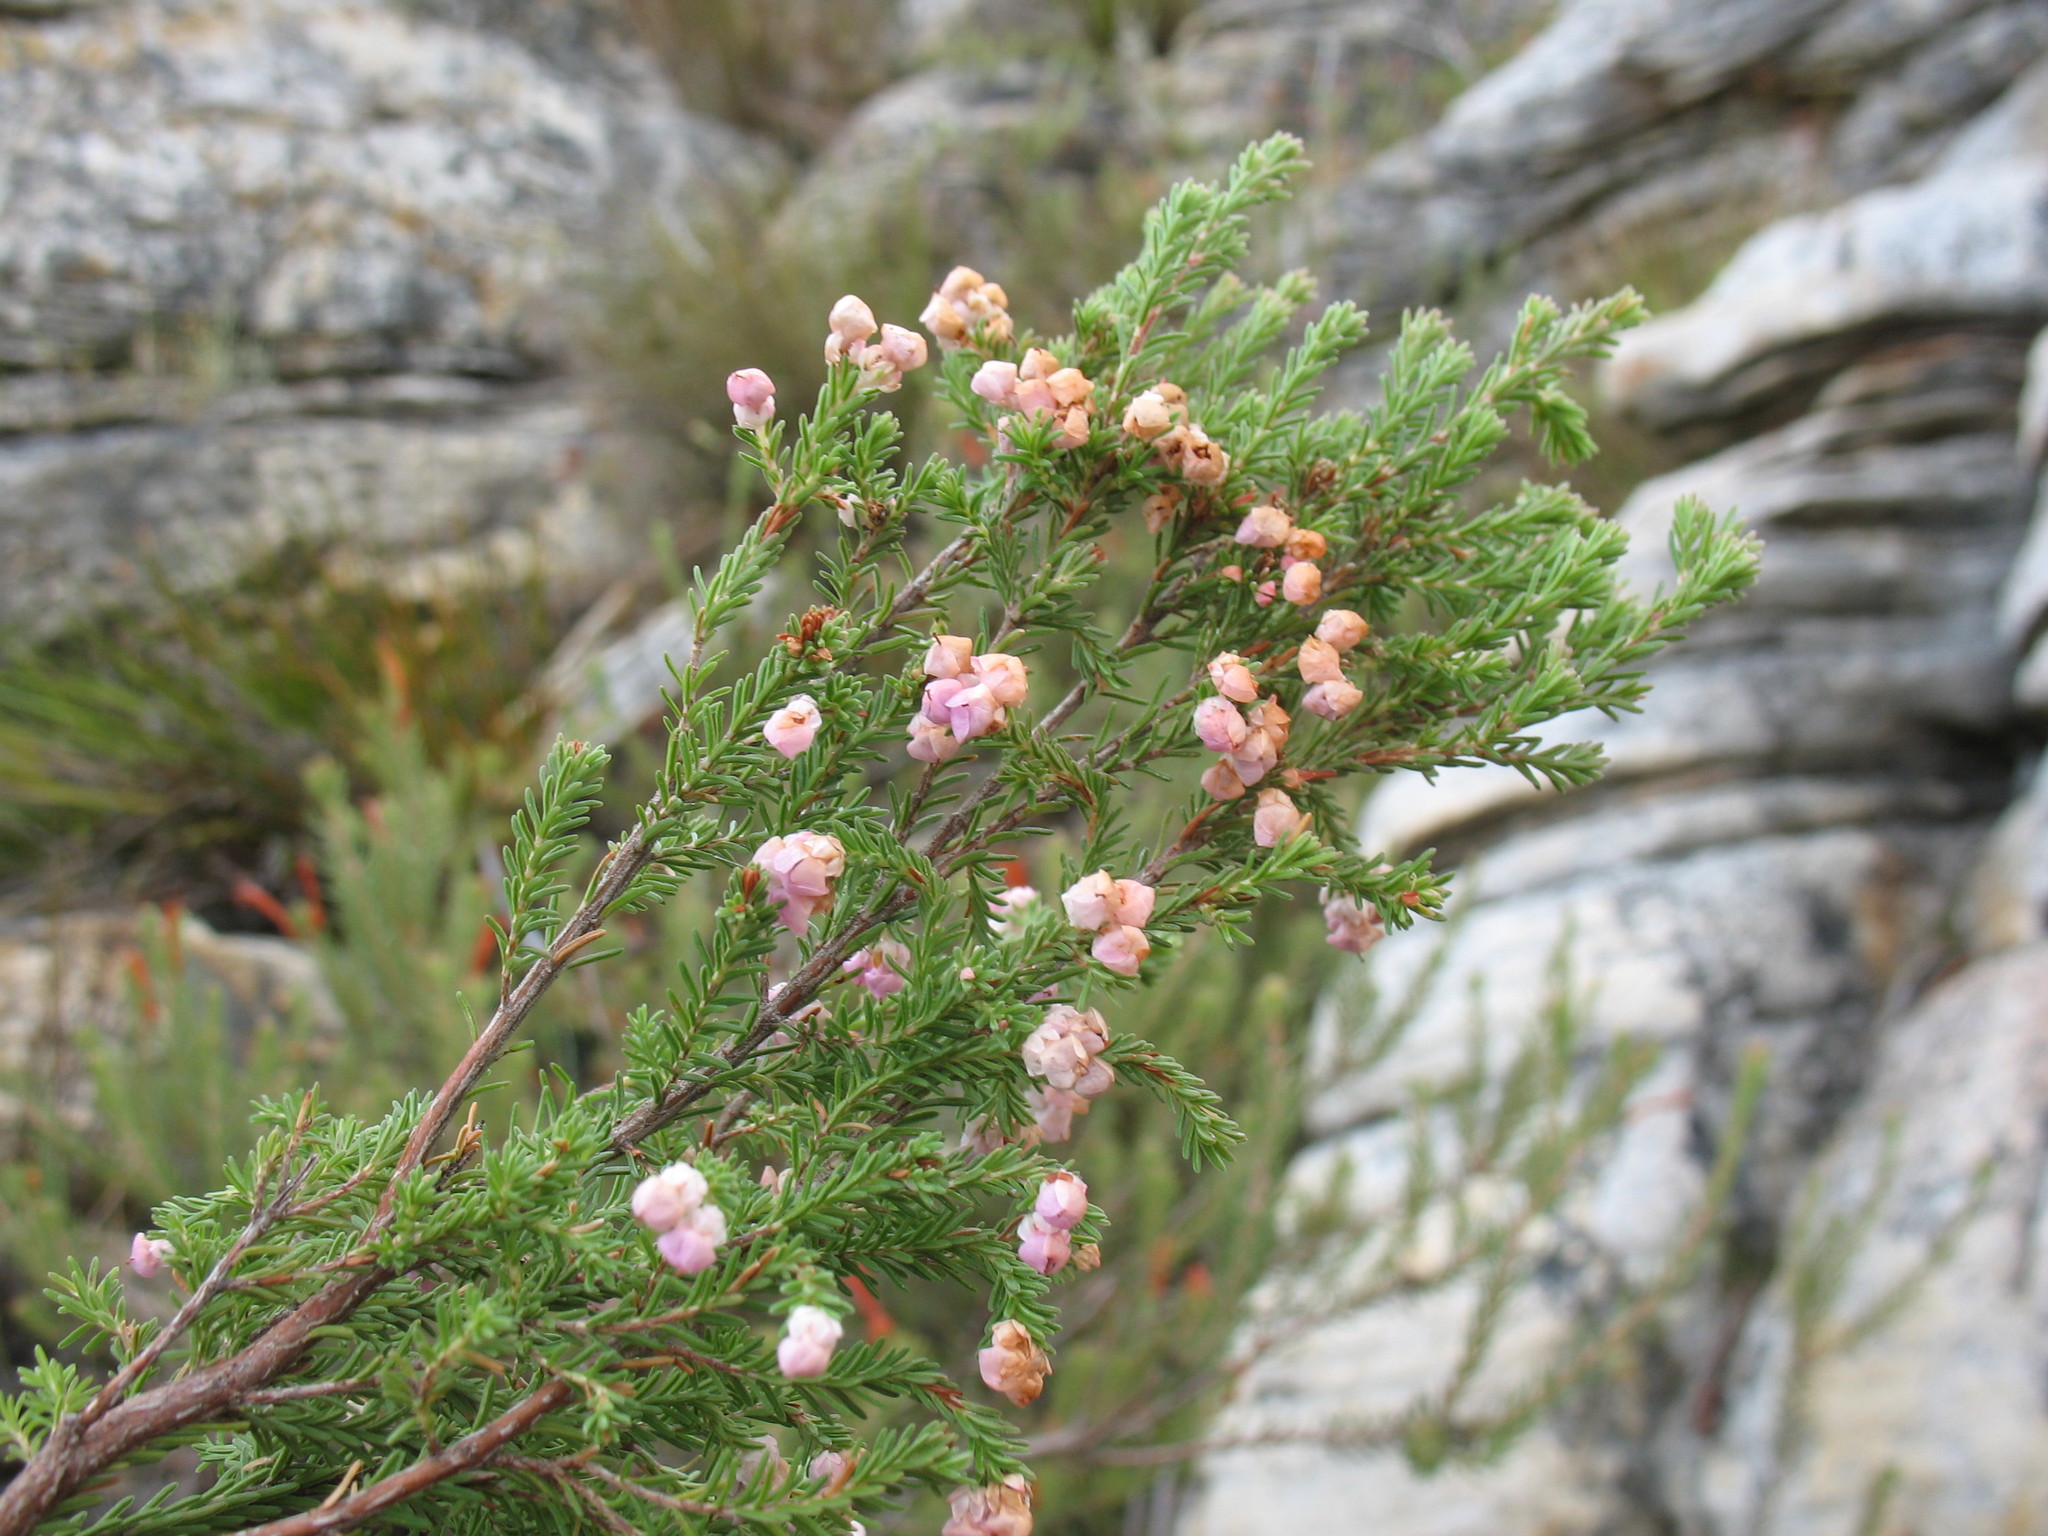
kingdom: Plantae
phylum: Tracheophyta
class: Magnoliopsida
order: Ericales
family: Ericaceae
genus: Erica
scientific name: Erica cristiflora
